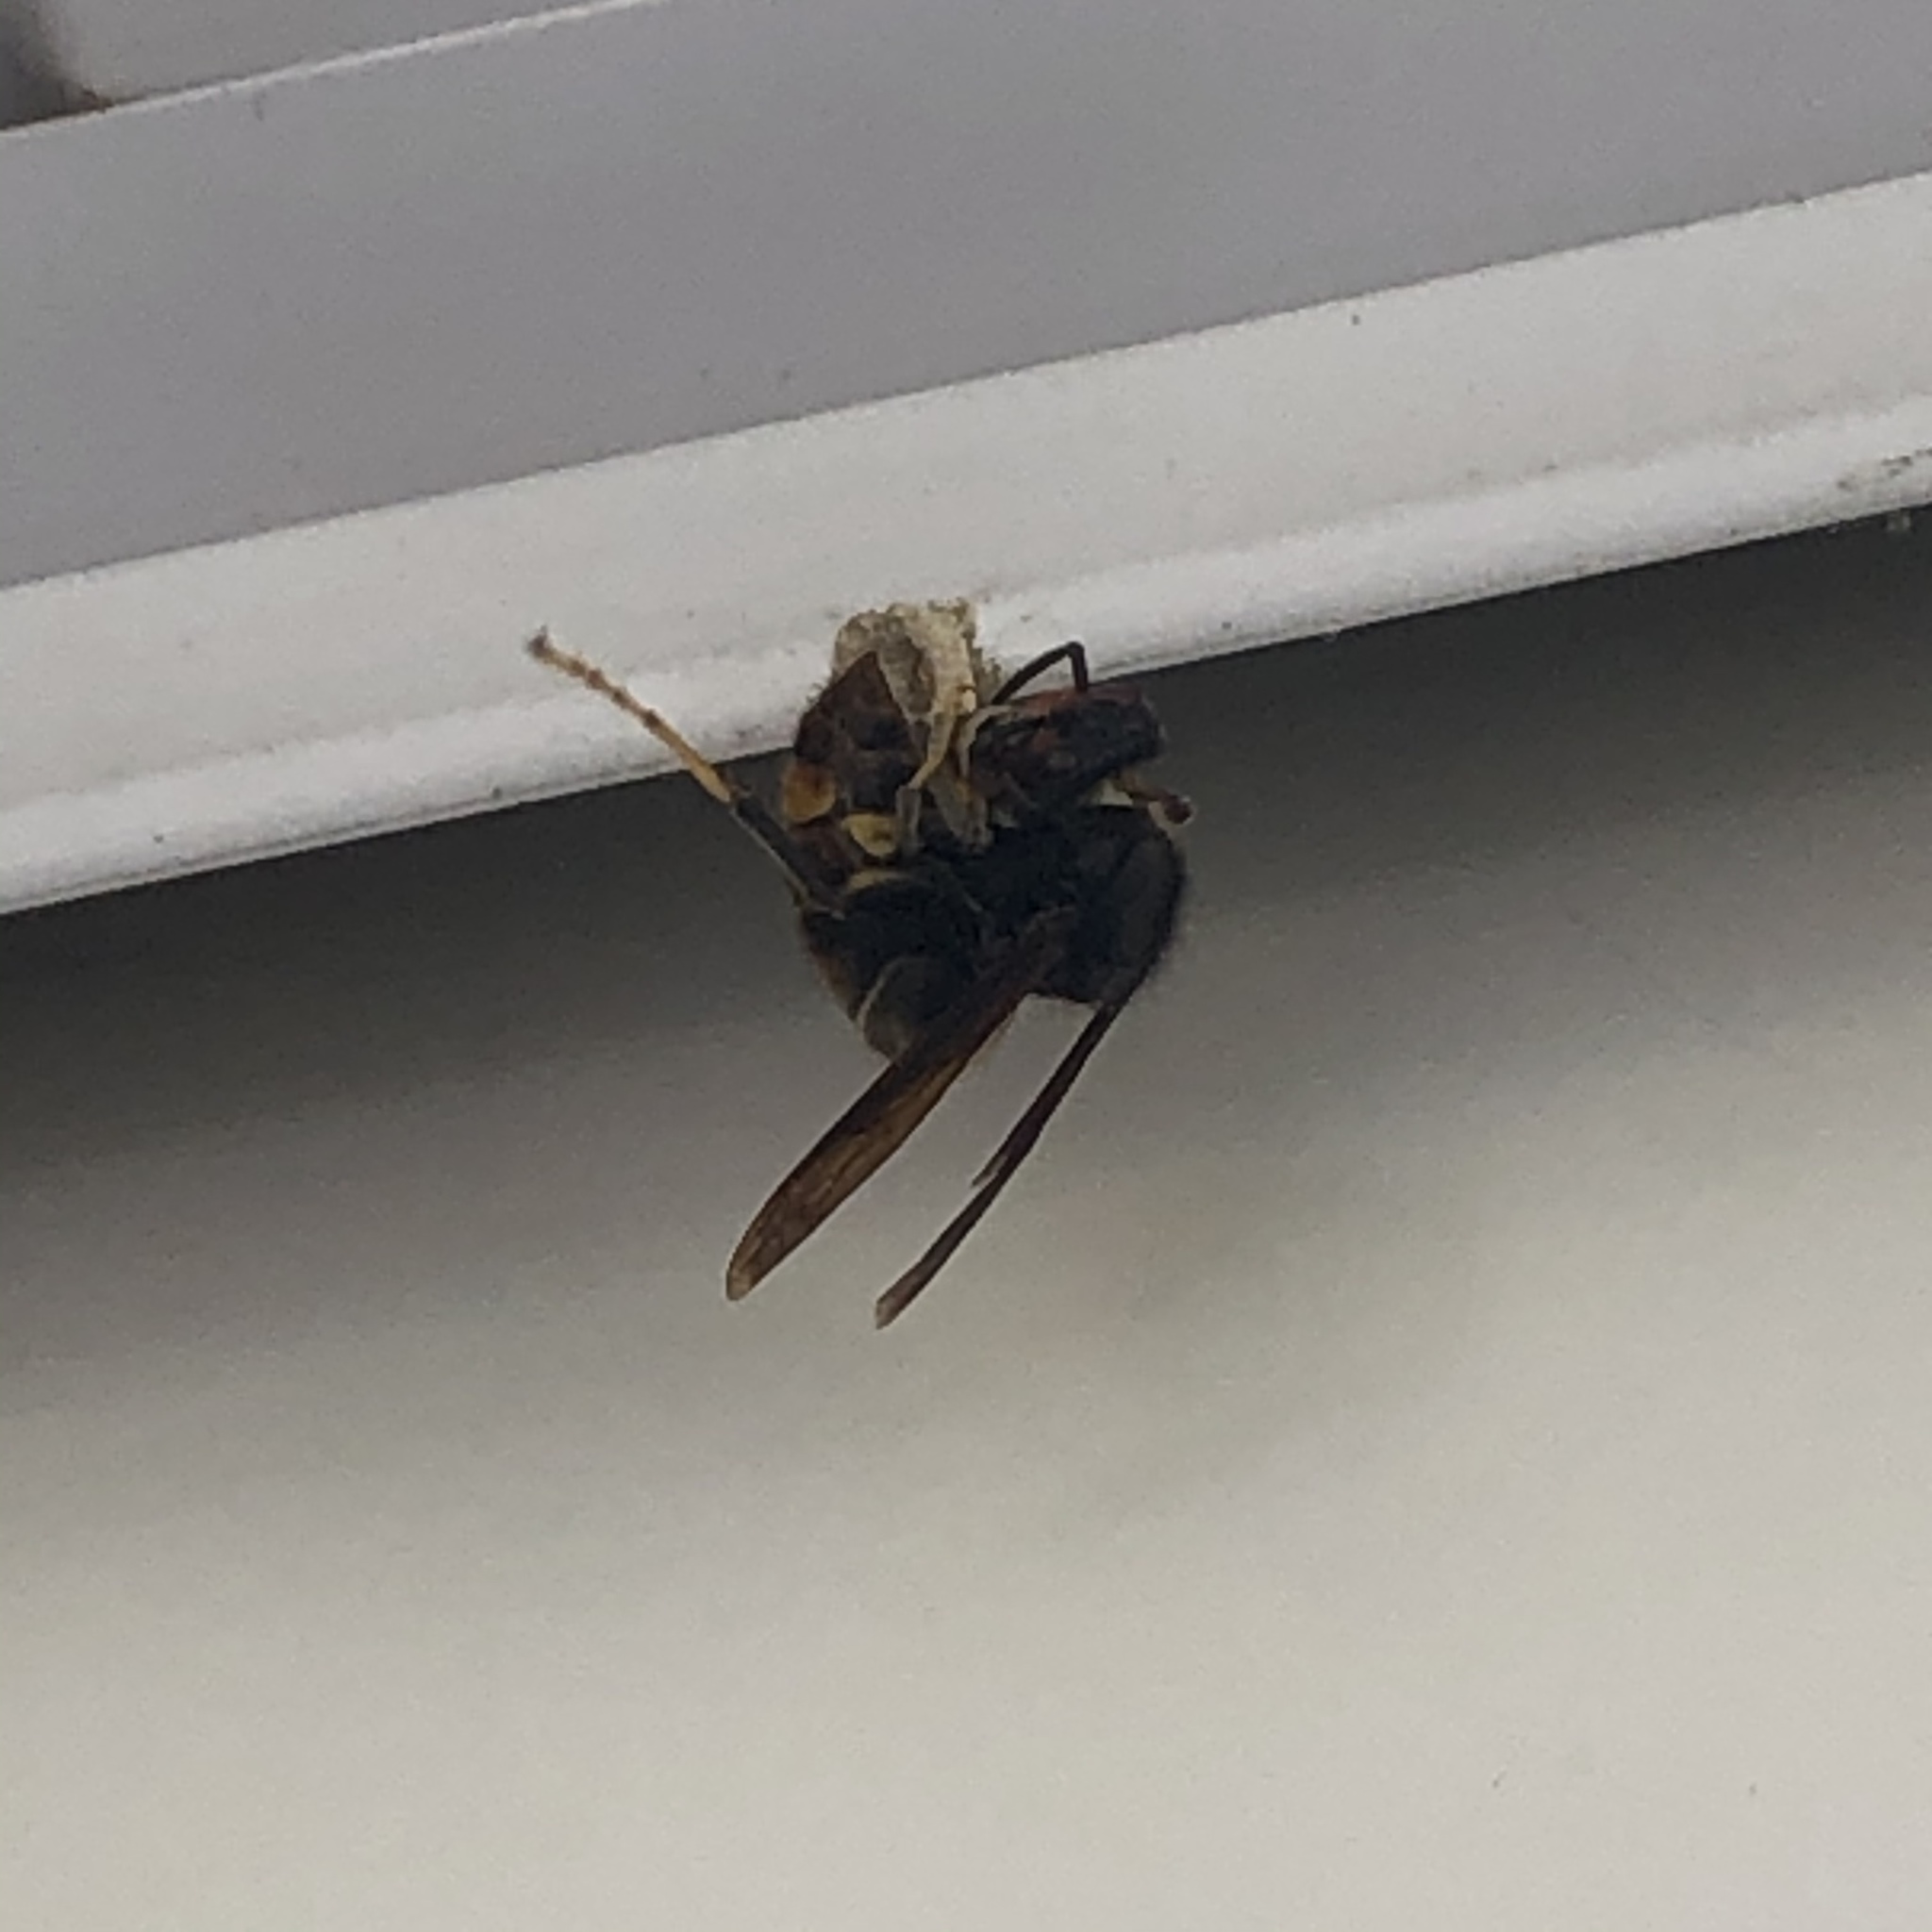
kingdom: Animalia
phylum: Arthropoda
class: Insecta
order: Hymenoptera
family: Vespidae
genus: Vespa
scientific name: Vespa velutina
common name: Asian hornet
